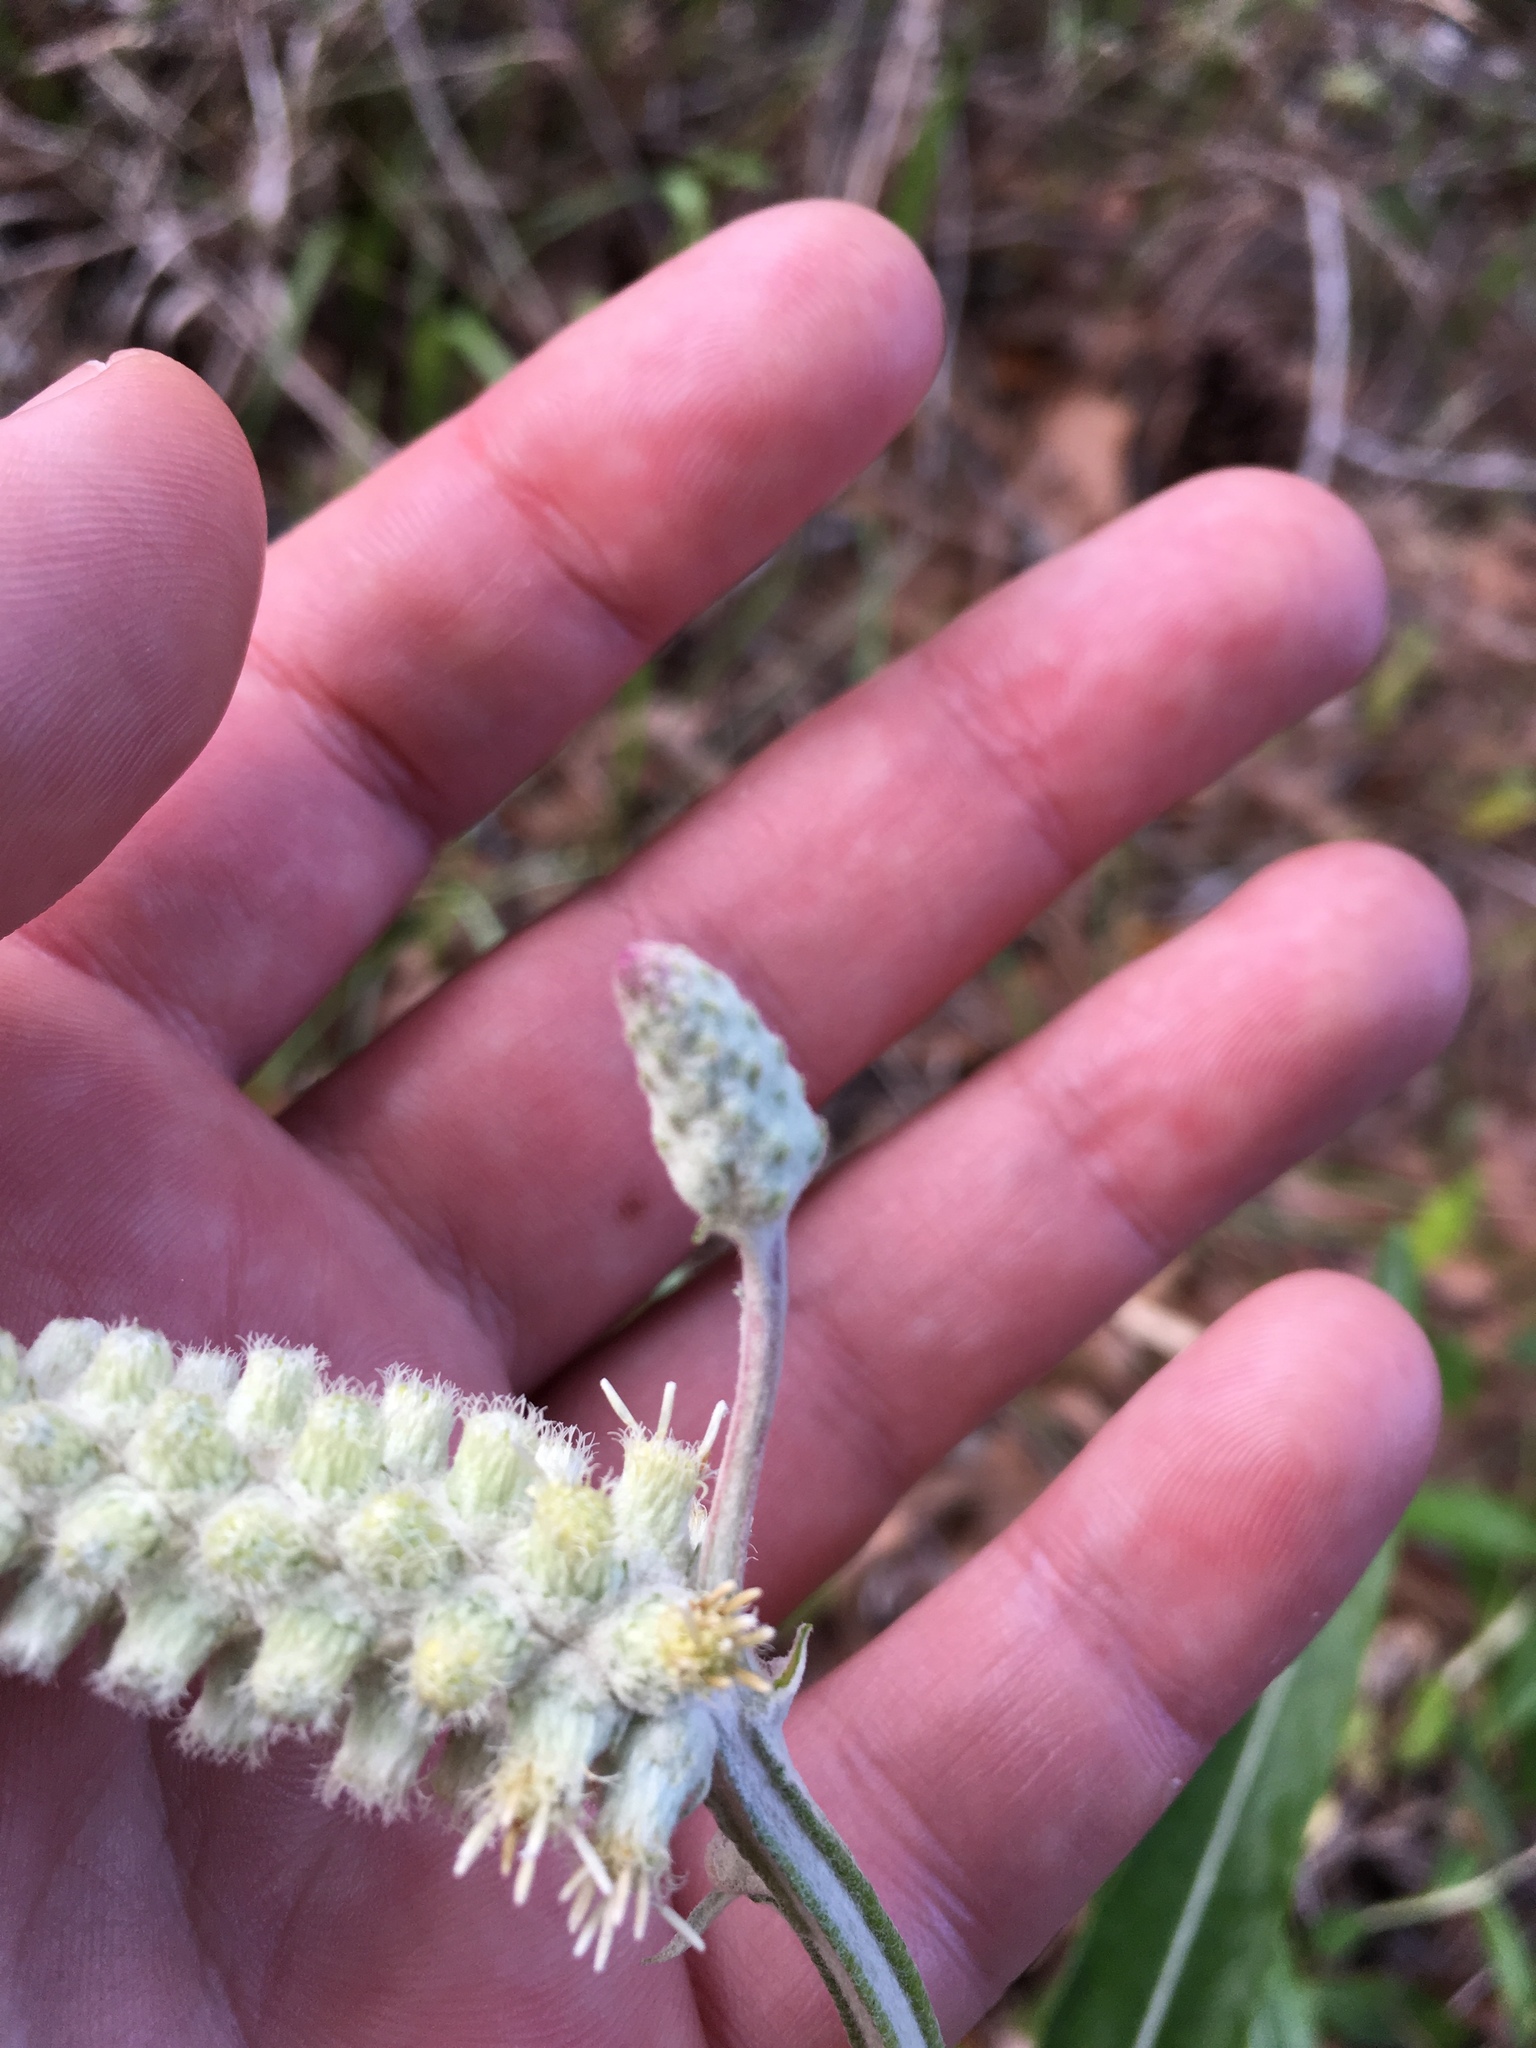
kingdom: Plantae
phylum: Tracheophyta
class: Magnoliopsida
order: Asterales
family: Asteraceae
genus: Pterocaulon
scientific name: Pterocaulon pycnostachyum
